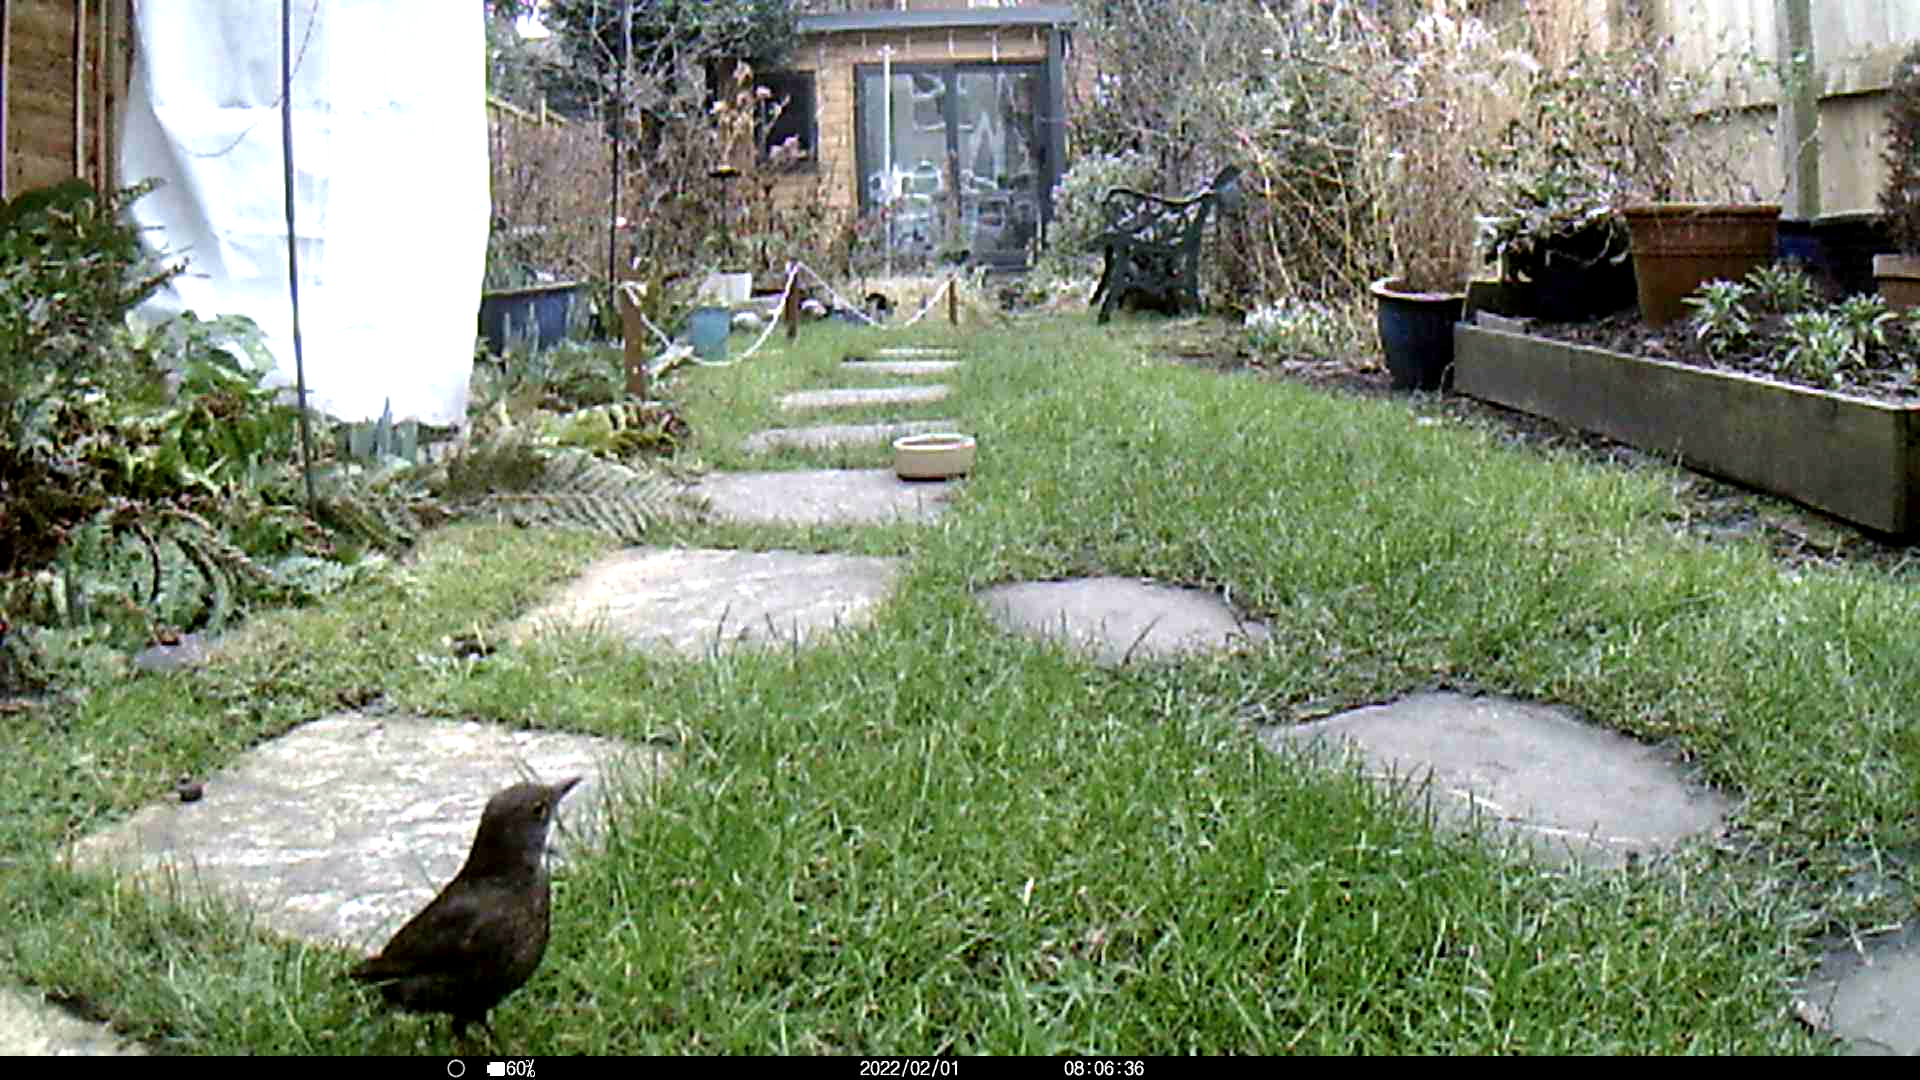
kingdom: Animalia
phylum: Chordata
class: Aves
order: Passeriformes
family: Turdidae
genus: Turdus
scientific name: Turdus merula
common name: Common blackbird
